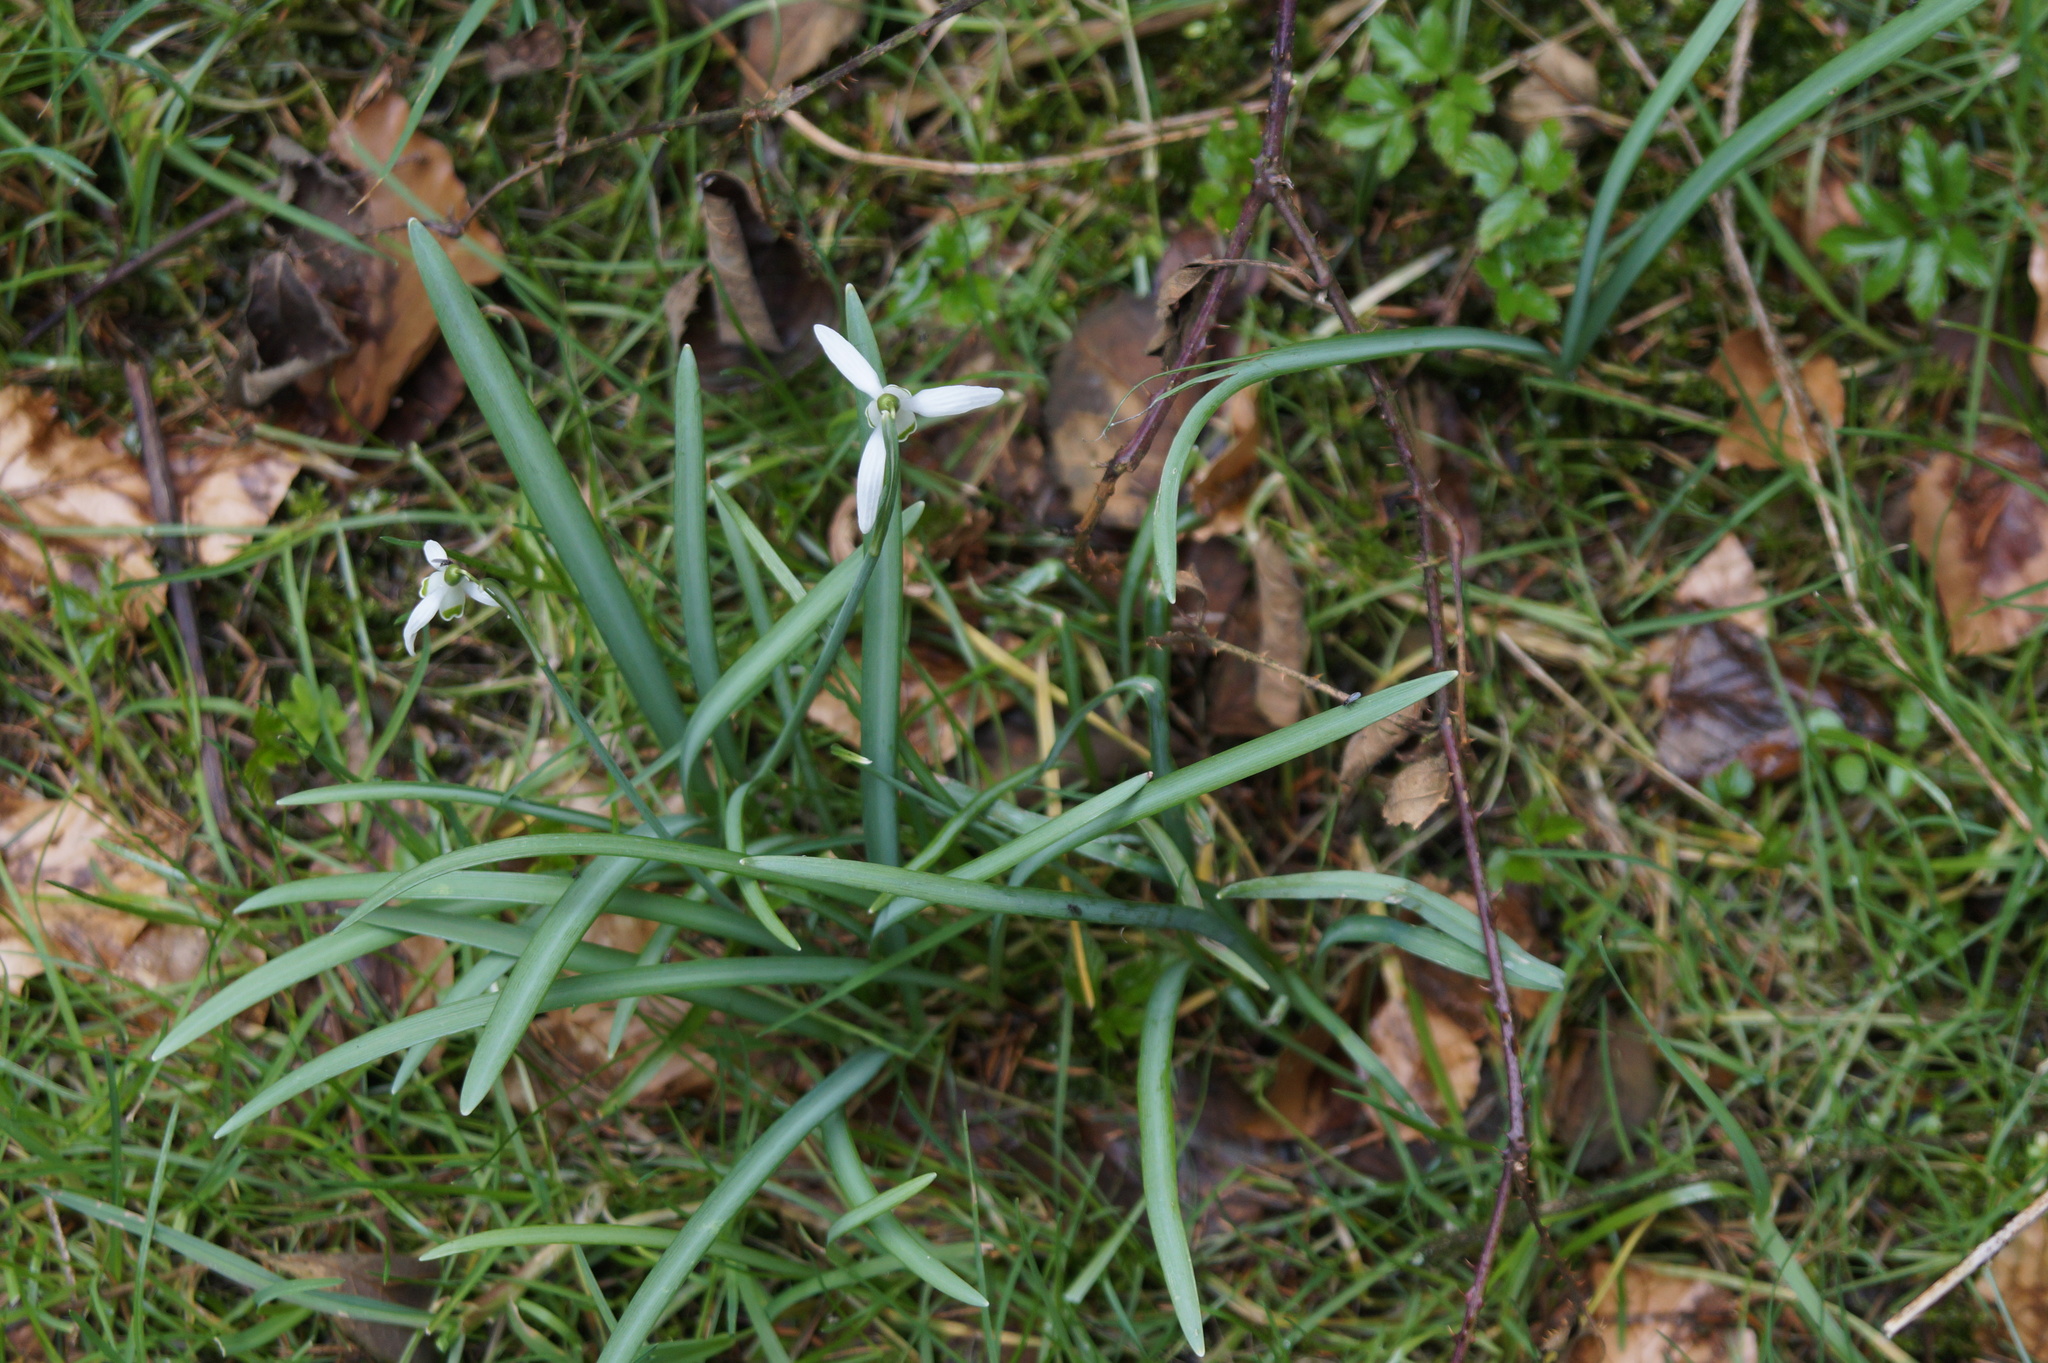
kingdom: Plantae
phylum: Tracheophyta
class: Liliopsida
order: Asparagales
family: Amaryllidaceae
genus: Galanthus
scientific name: Galanthus nivalis
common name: Snowdrop
